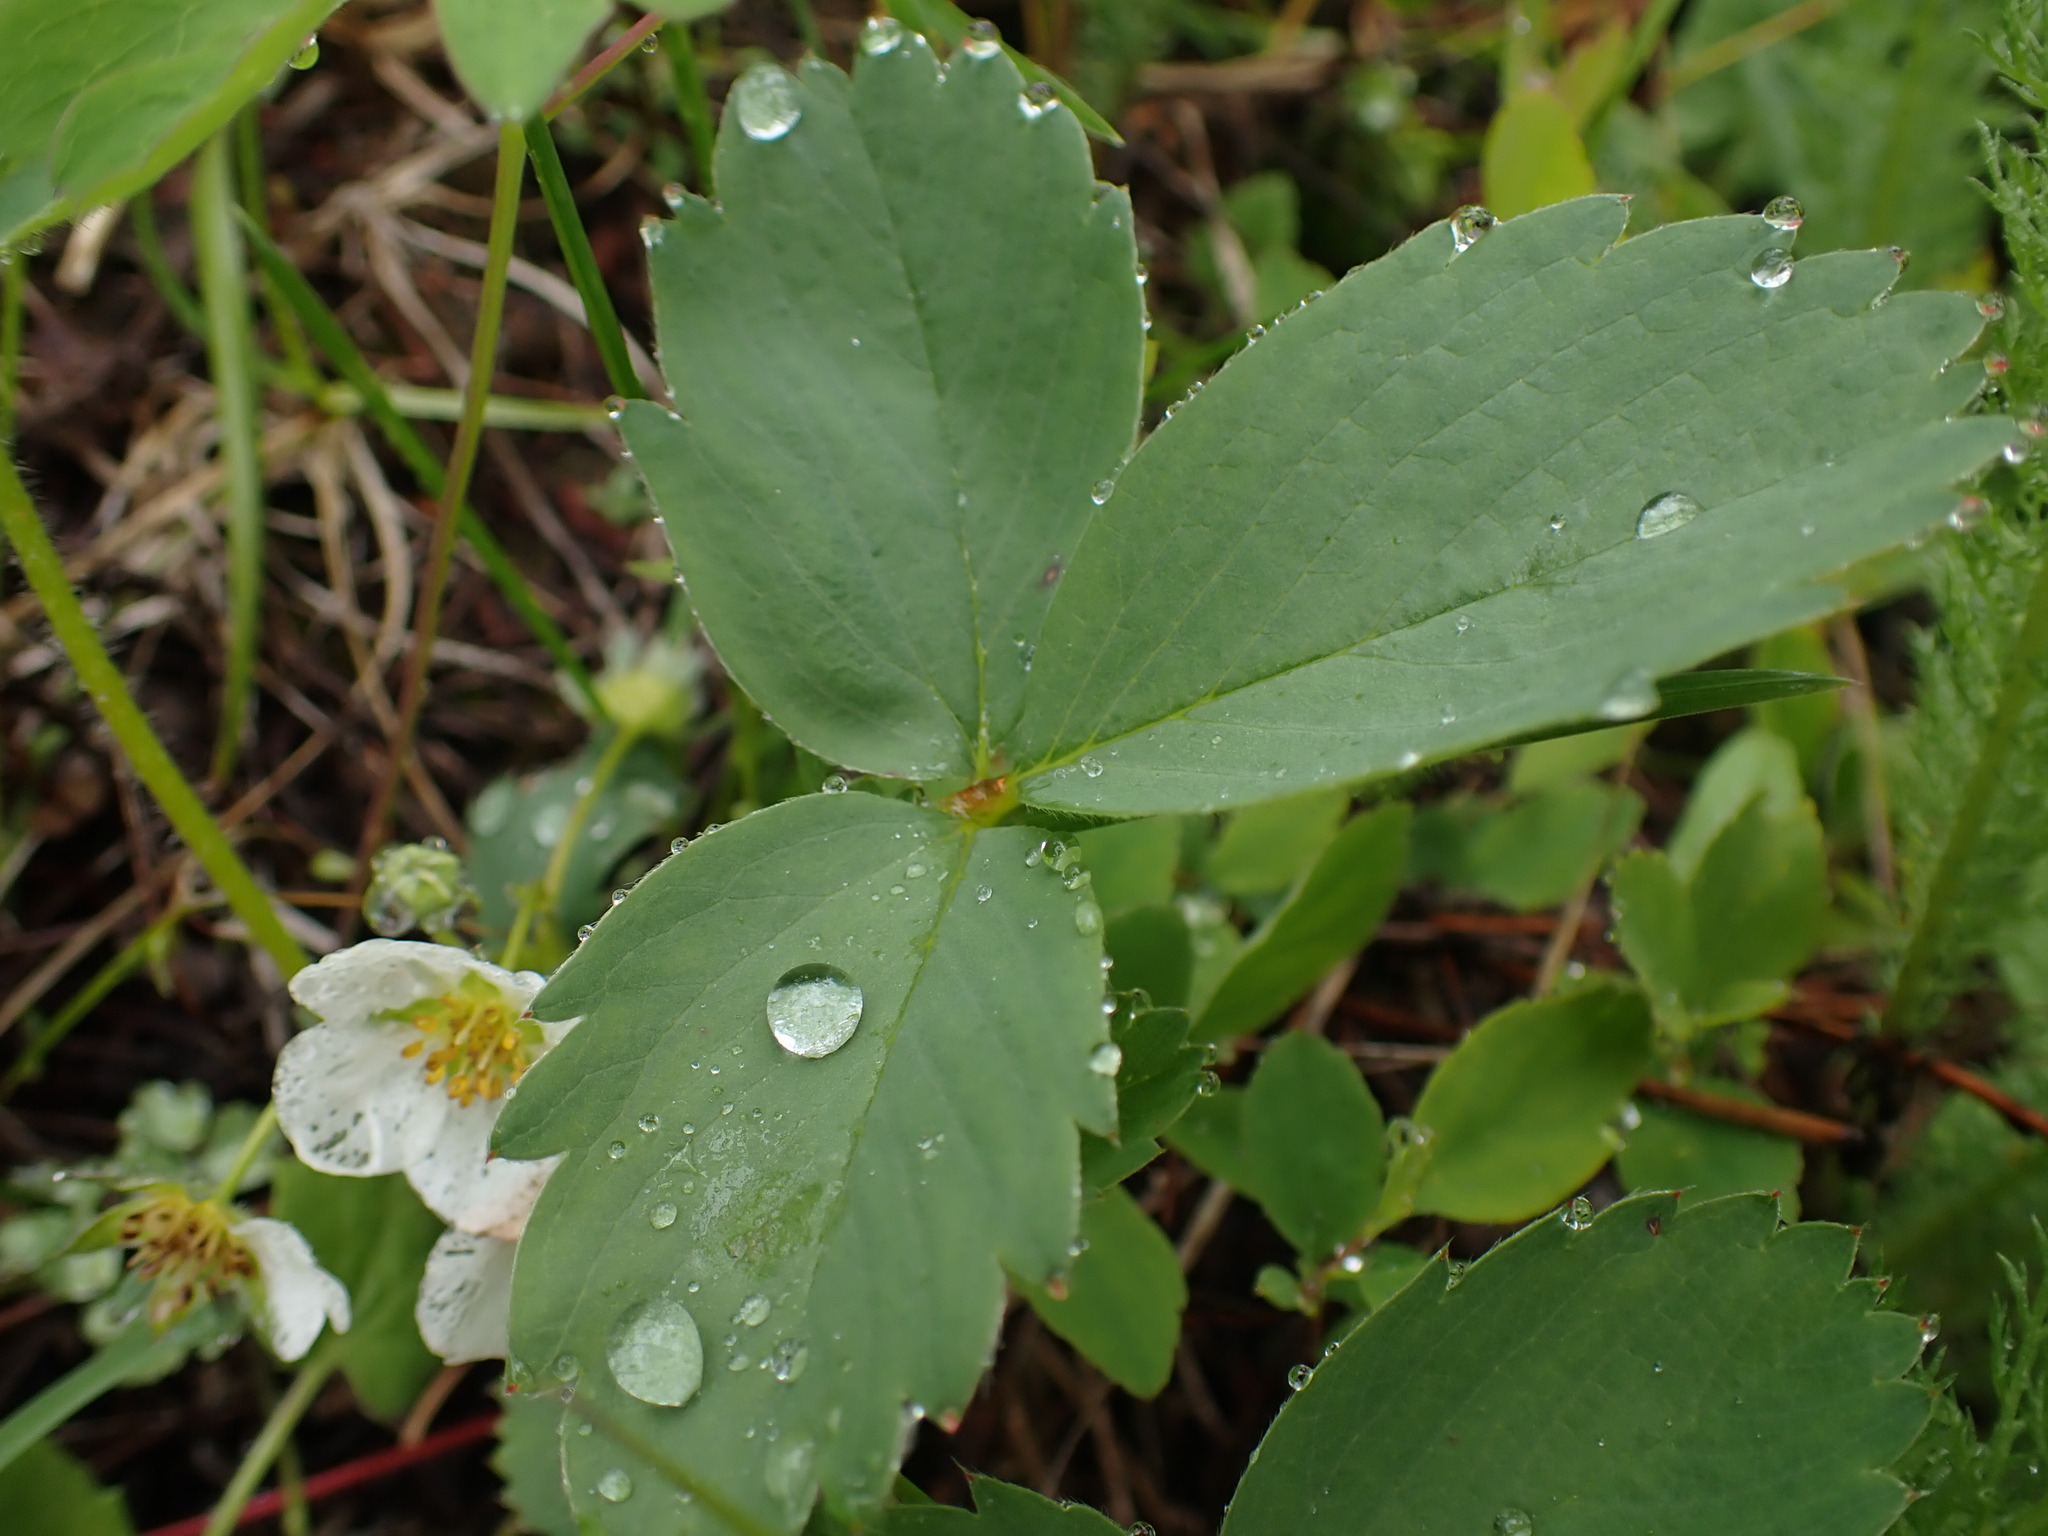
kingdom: Plantae
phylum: Tracheophyta
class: Magnoliopsida
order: Rosales
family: Rosaceae
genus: Fragaria
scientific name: Fragaria virginiana
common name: Thickleaved wild strawberry
